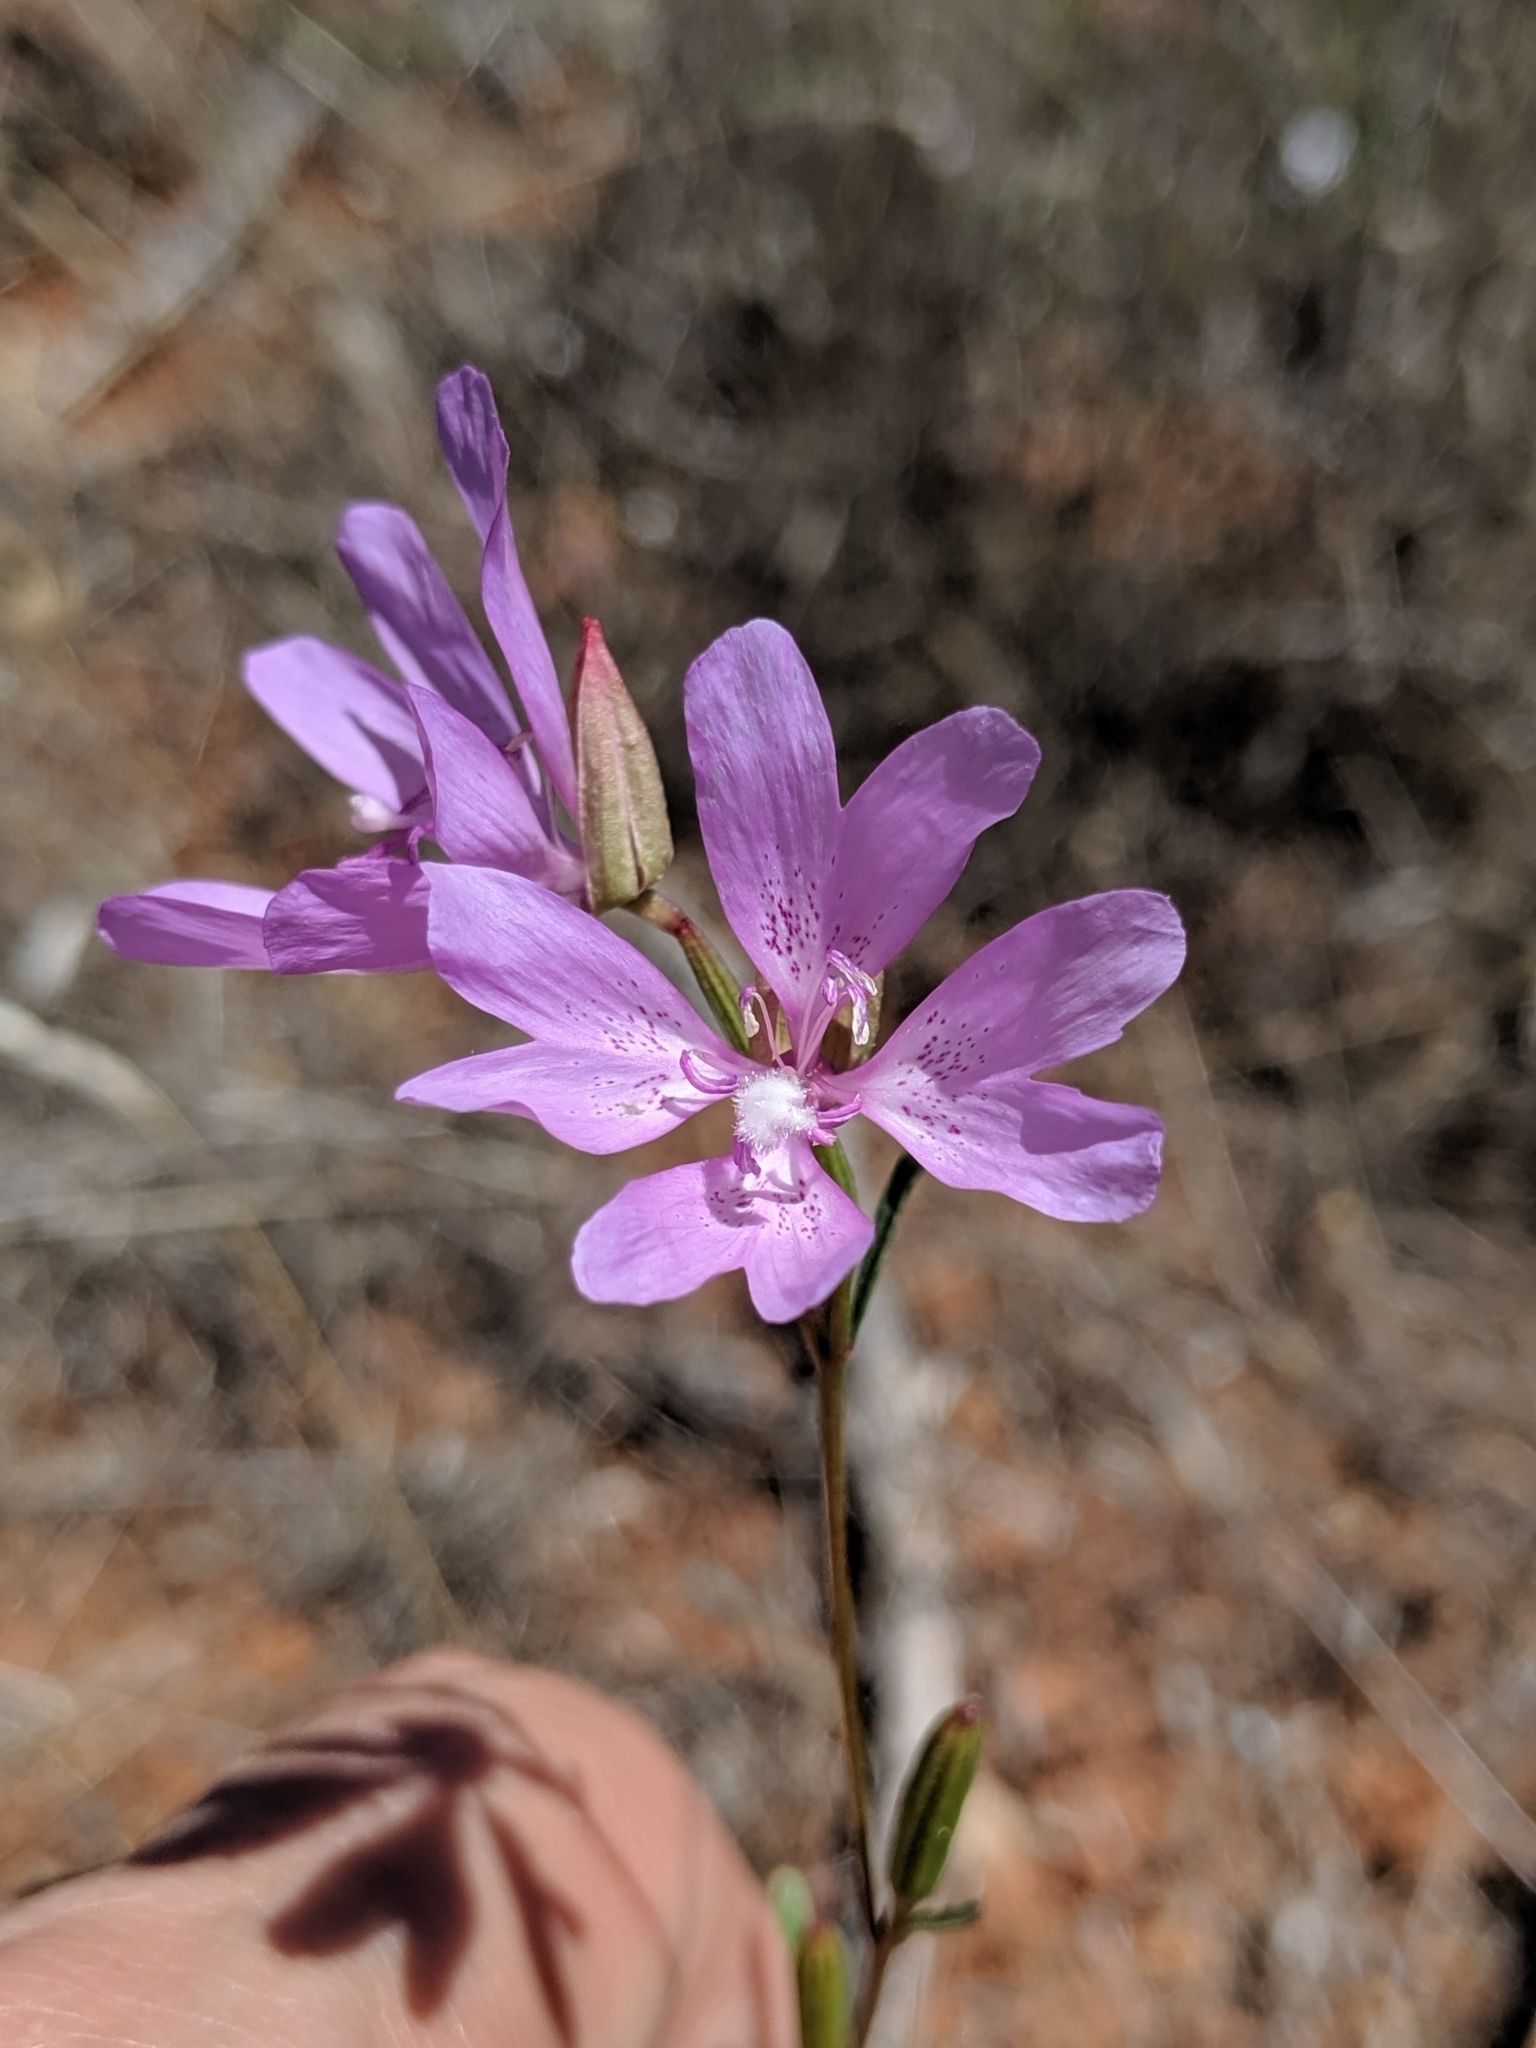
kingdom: Plantae
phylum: Tracheophyta
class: Magnoliopsida
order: Myrtales
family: Onagraceae
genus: Clarkia
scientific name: Clarkia biloba
